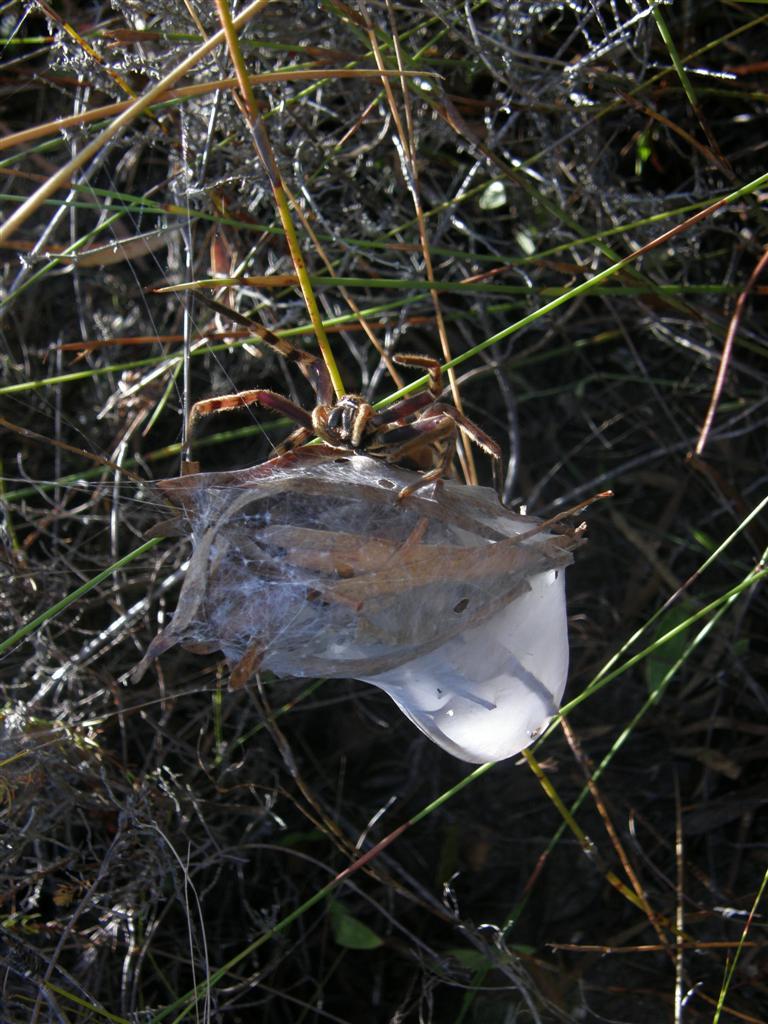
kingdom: Animalia
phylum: Arthropoda
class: Arachnida
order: Araneae
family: Sparassidae
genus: Palystes
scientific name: Palystes castaneus
